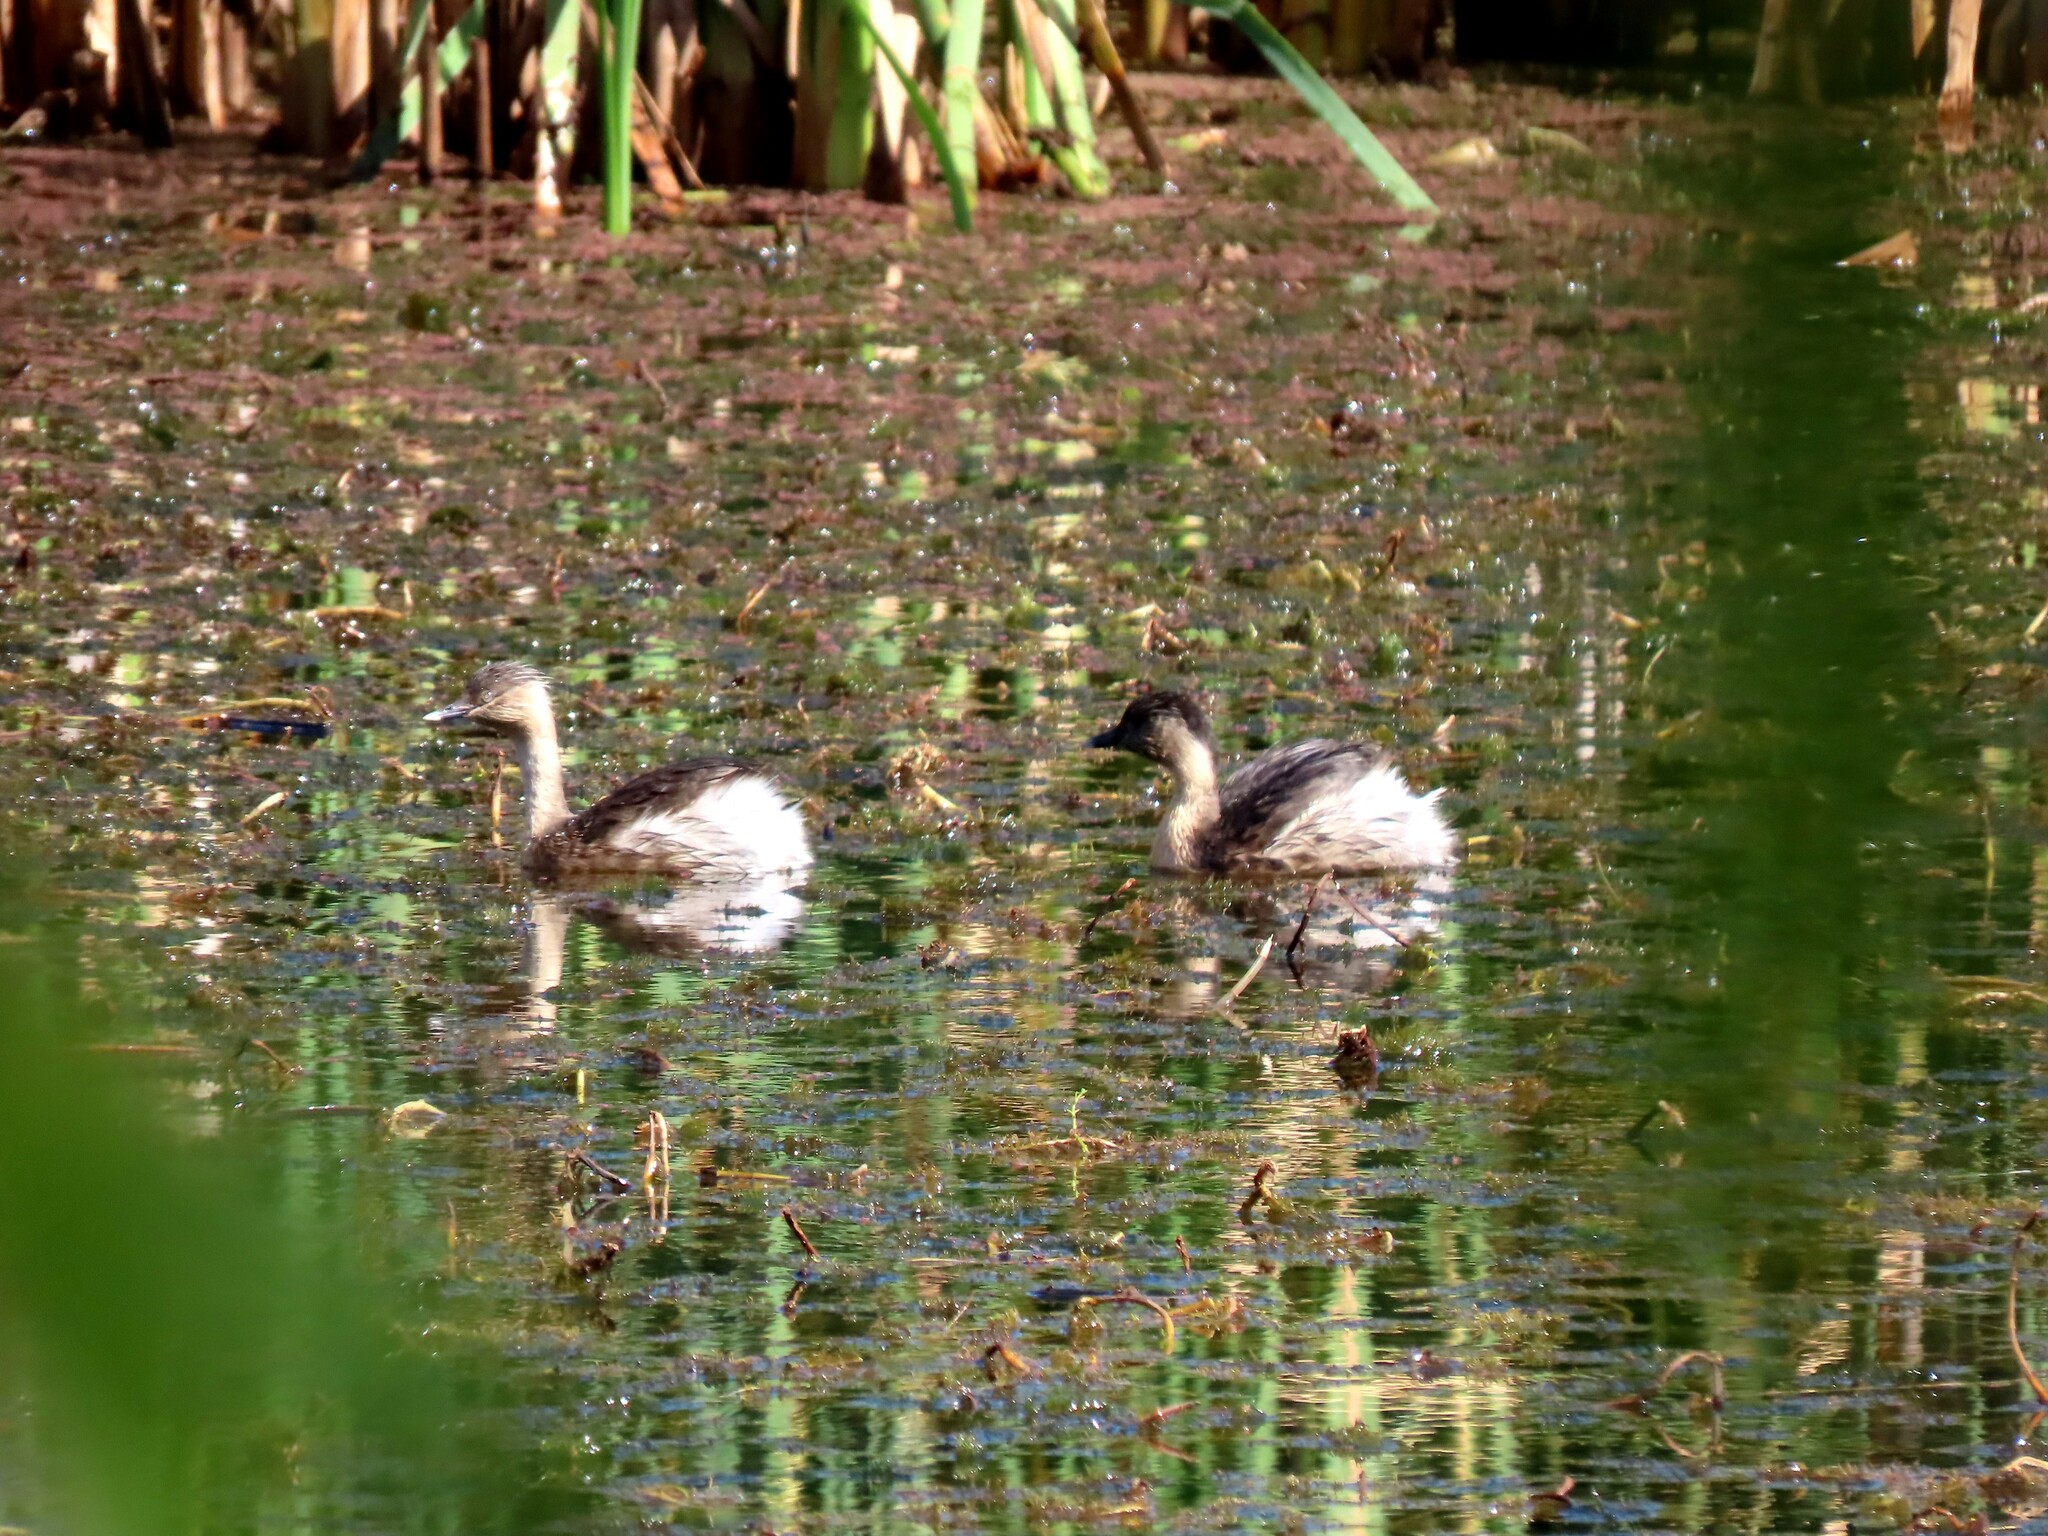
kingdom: Animalia
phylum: Chordata
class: Aves
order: Podicipediformes
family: Podicipedidae
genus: Poliocephalus
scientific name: Poliocephalus poliocephalus
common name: Hoary-headed grebe
